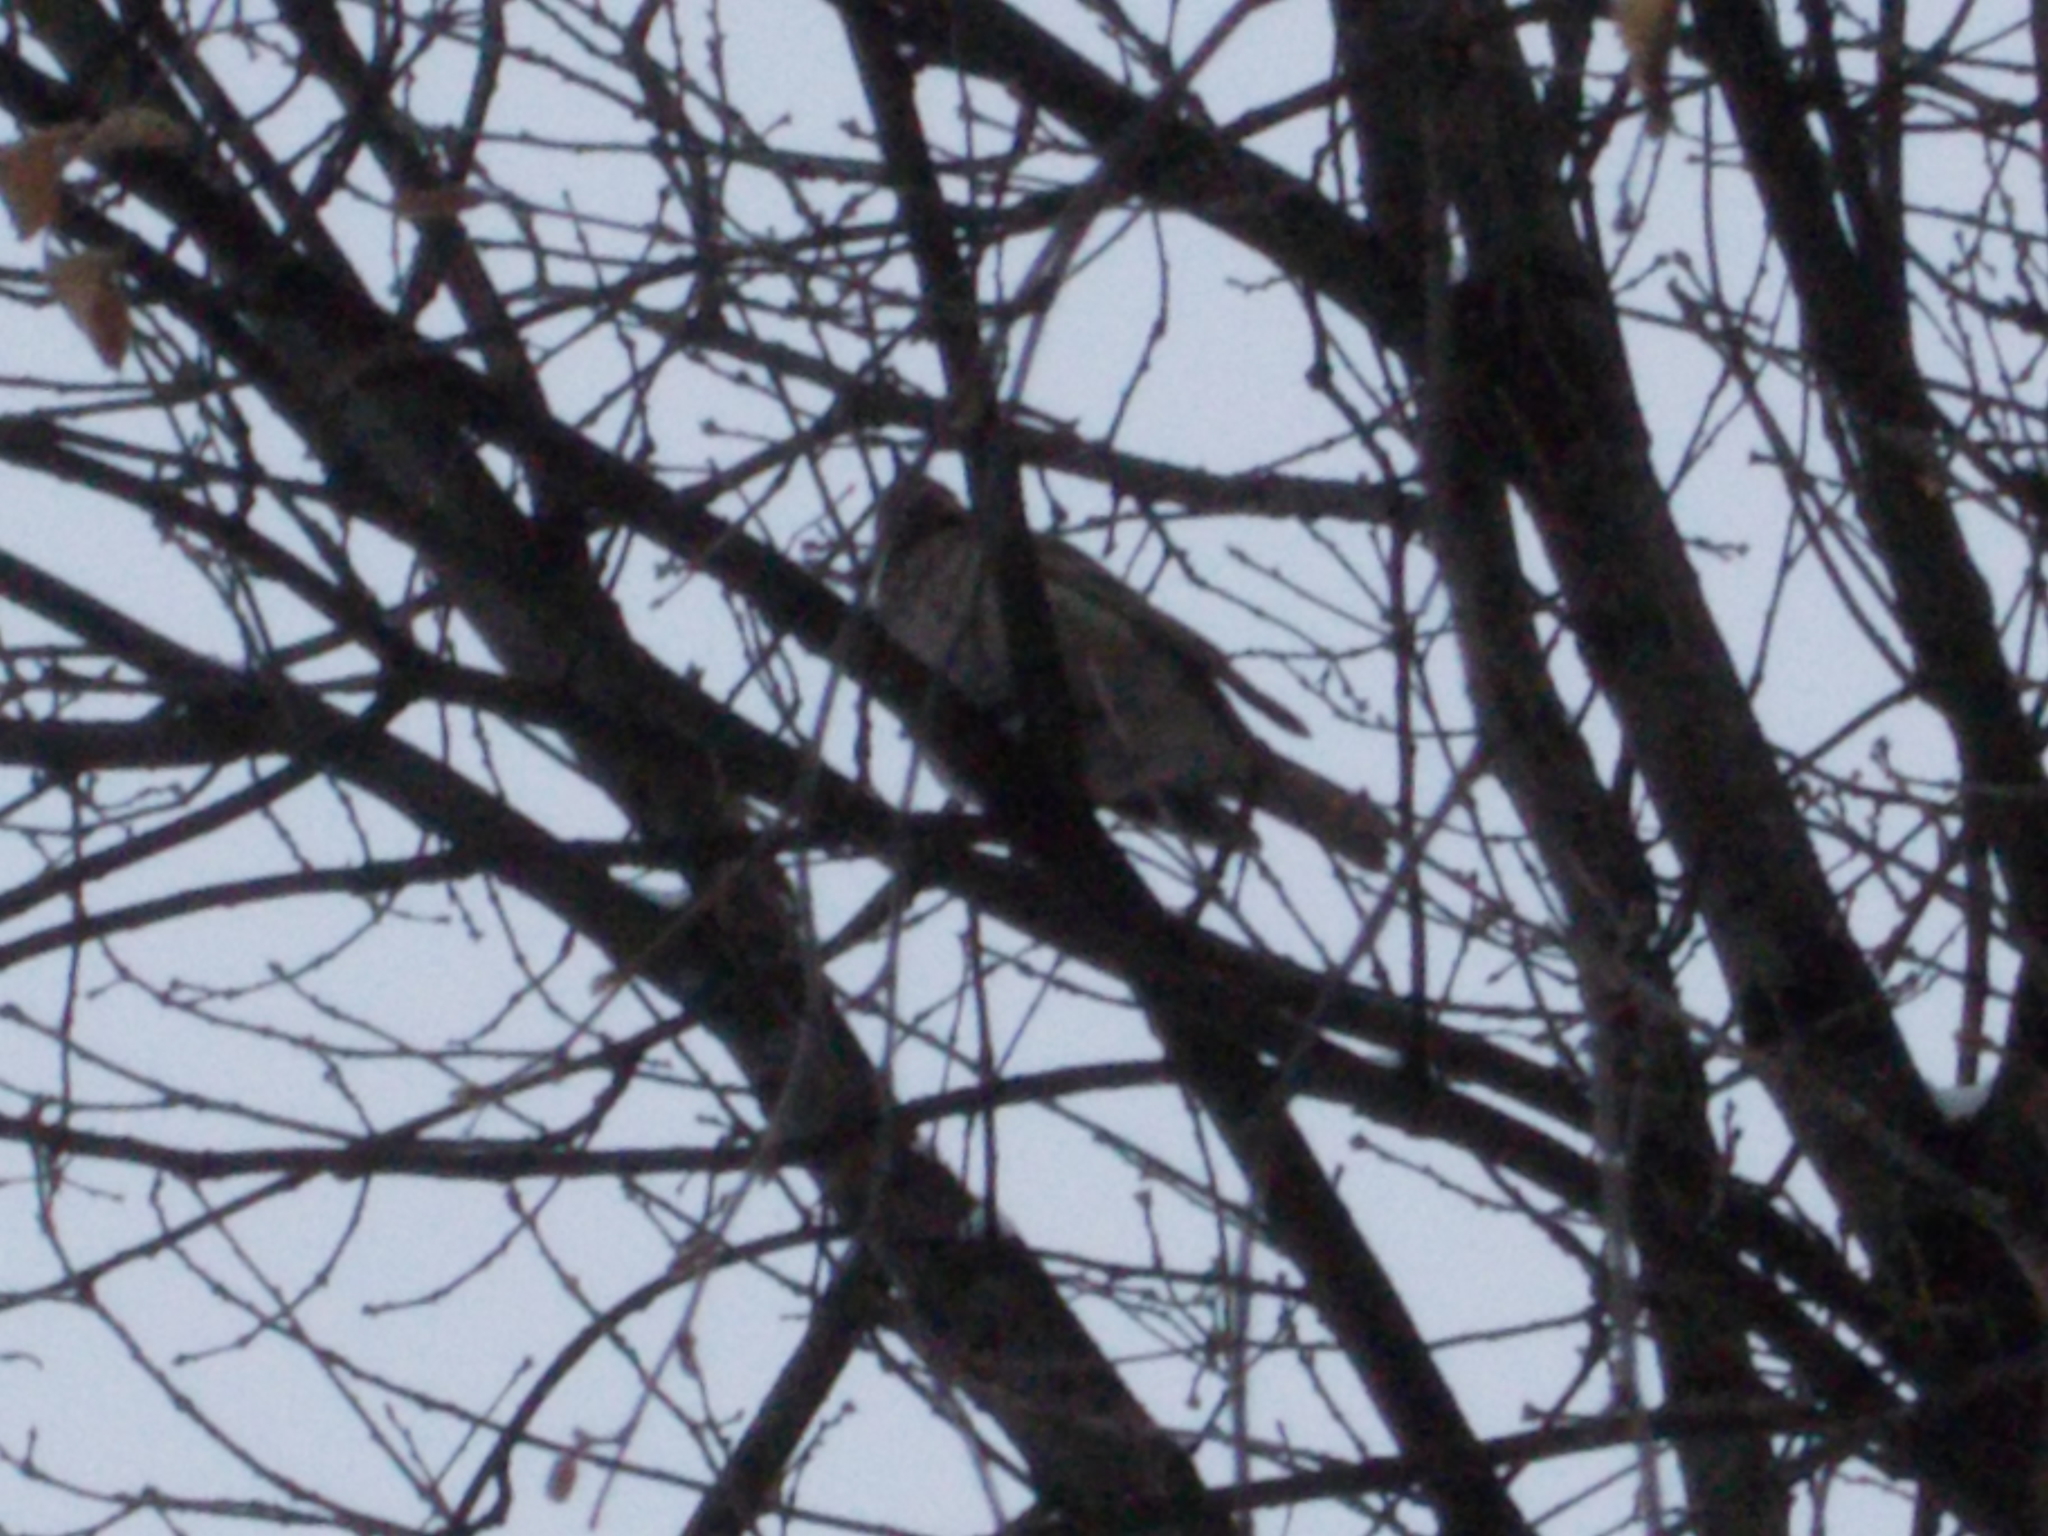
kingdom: Animalia
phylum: Chordata
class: Aves
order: Passeriformes
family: Turdidae
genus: Turdus
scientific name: Turdus atrogularis
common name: Black-throated thrush
